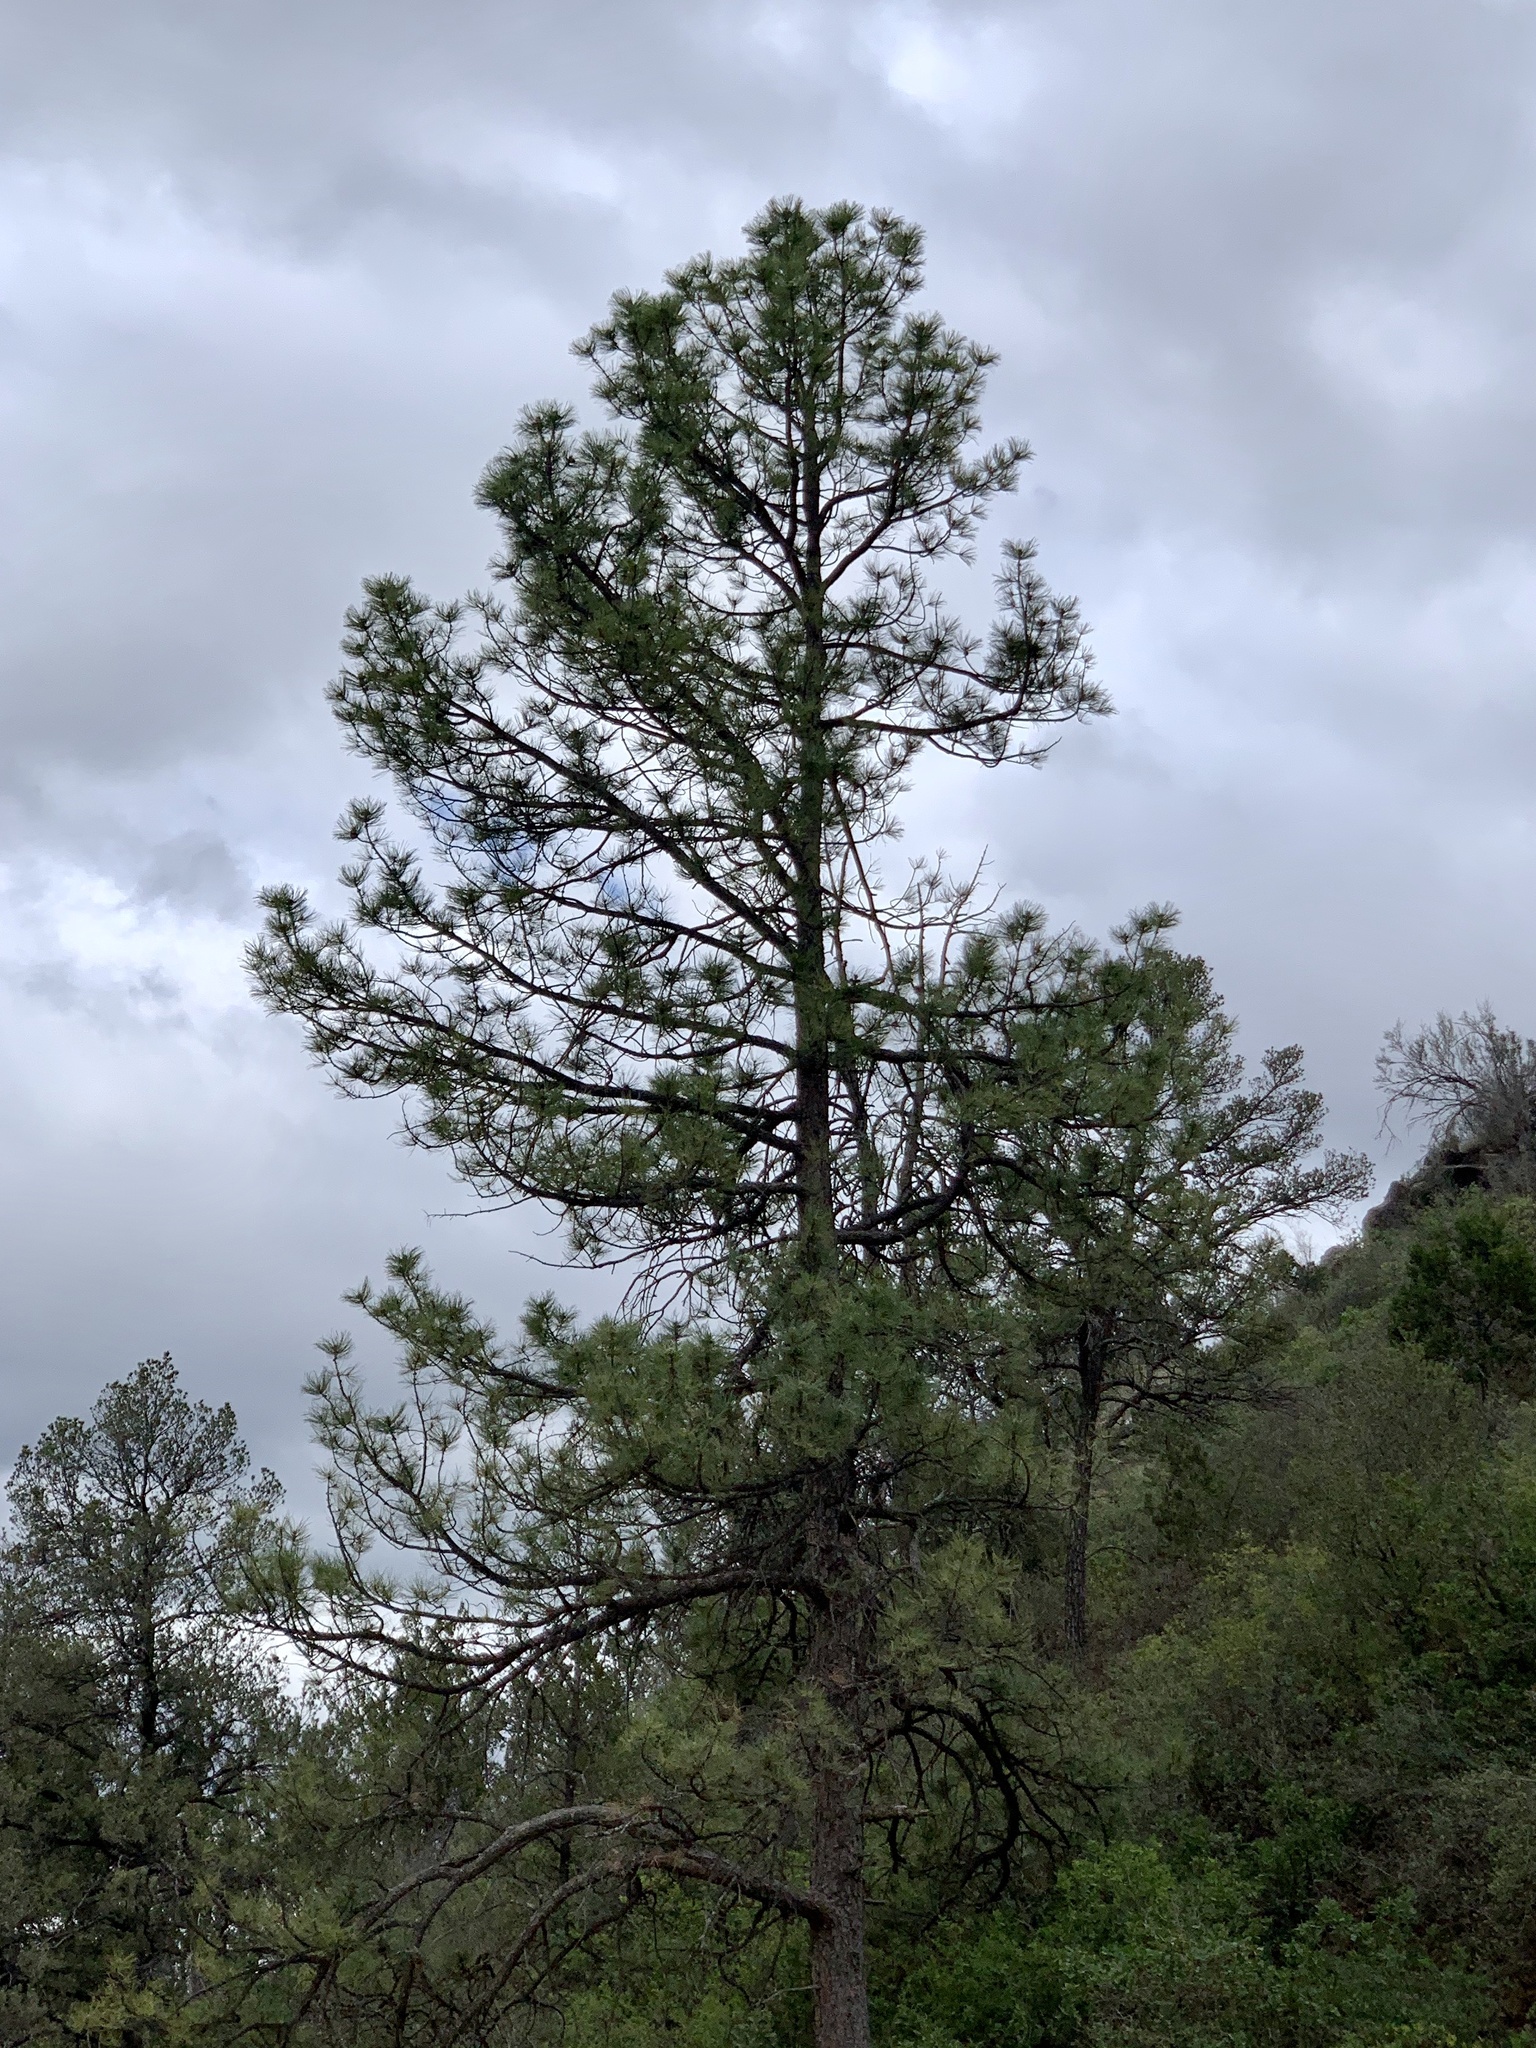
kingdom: Plantae
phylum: Tracheophyta
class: Pinopsida
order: Pinales
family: Pinaceae
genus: Pinus
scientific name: Pinus ponderosa
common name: Western yellow-pine
